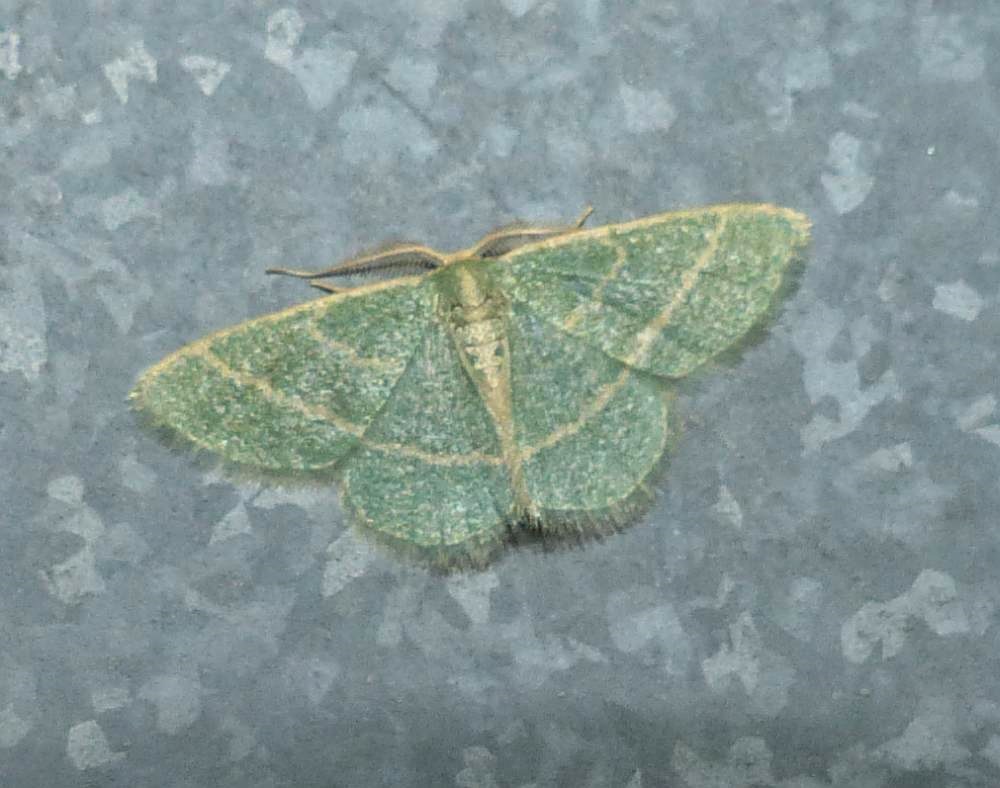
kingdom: Animalia
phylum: Arthropoda
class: Insecta
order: Lepidoptera
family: Geometridae
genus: Chlorochlamys
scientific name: Chlorochlamys chloroleucaria
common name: Blackberry looper
